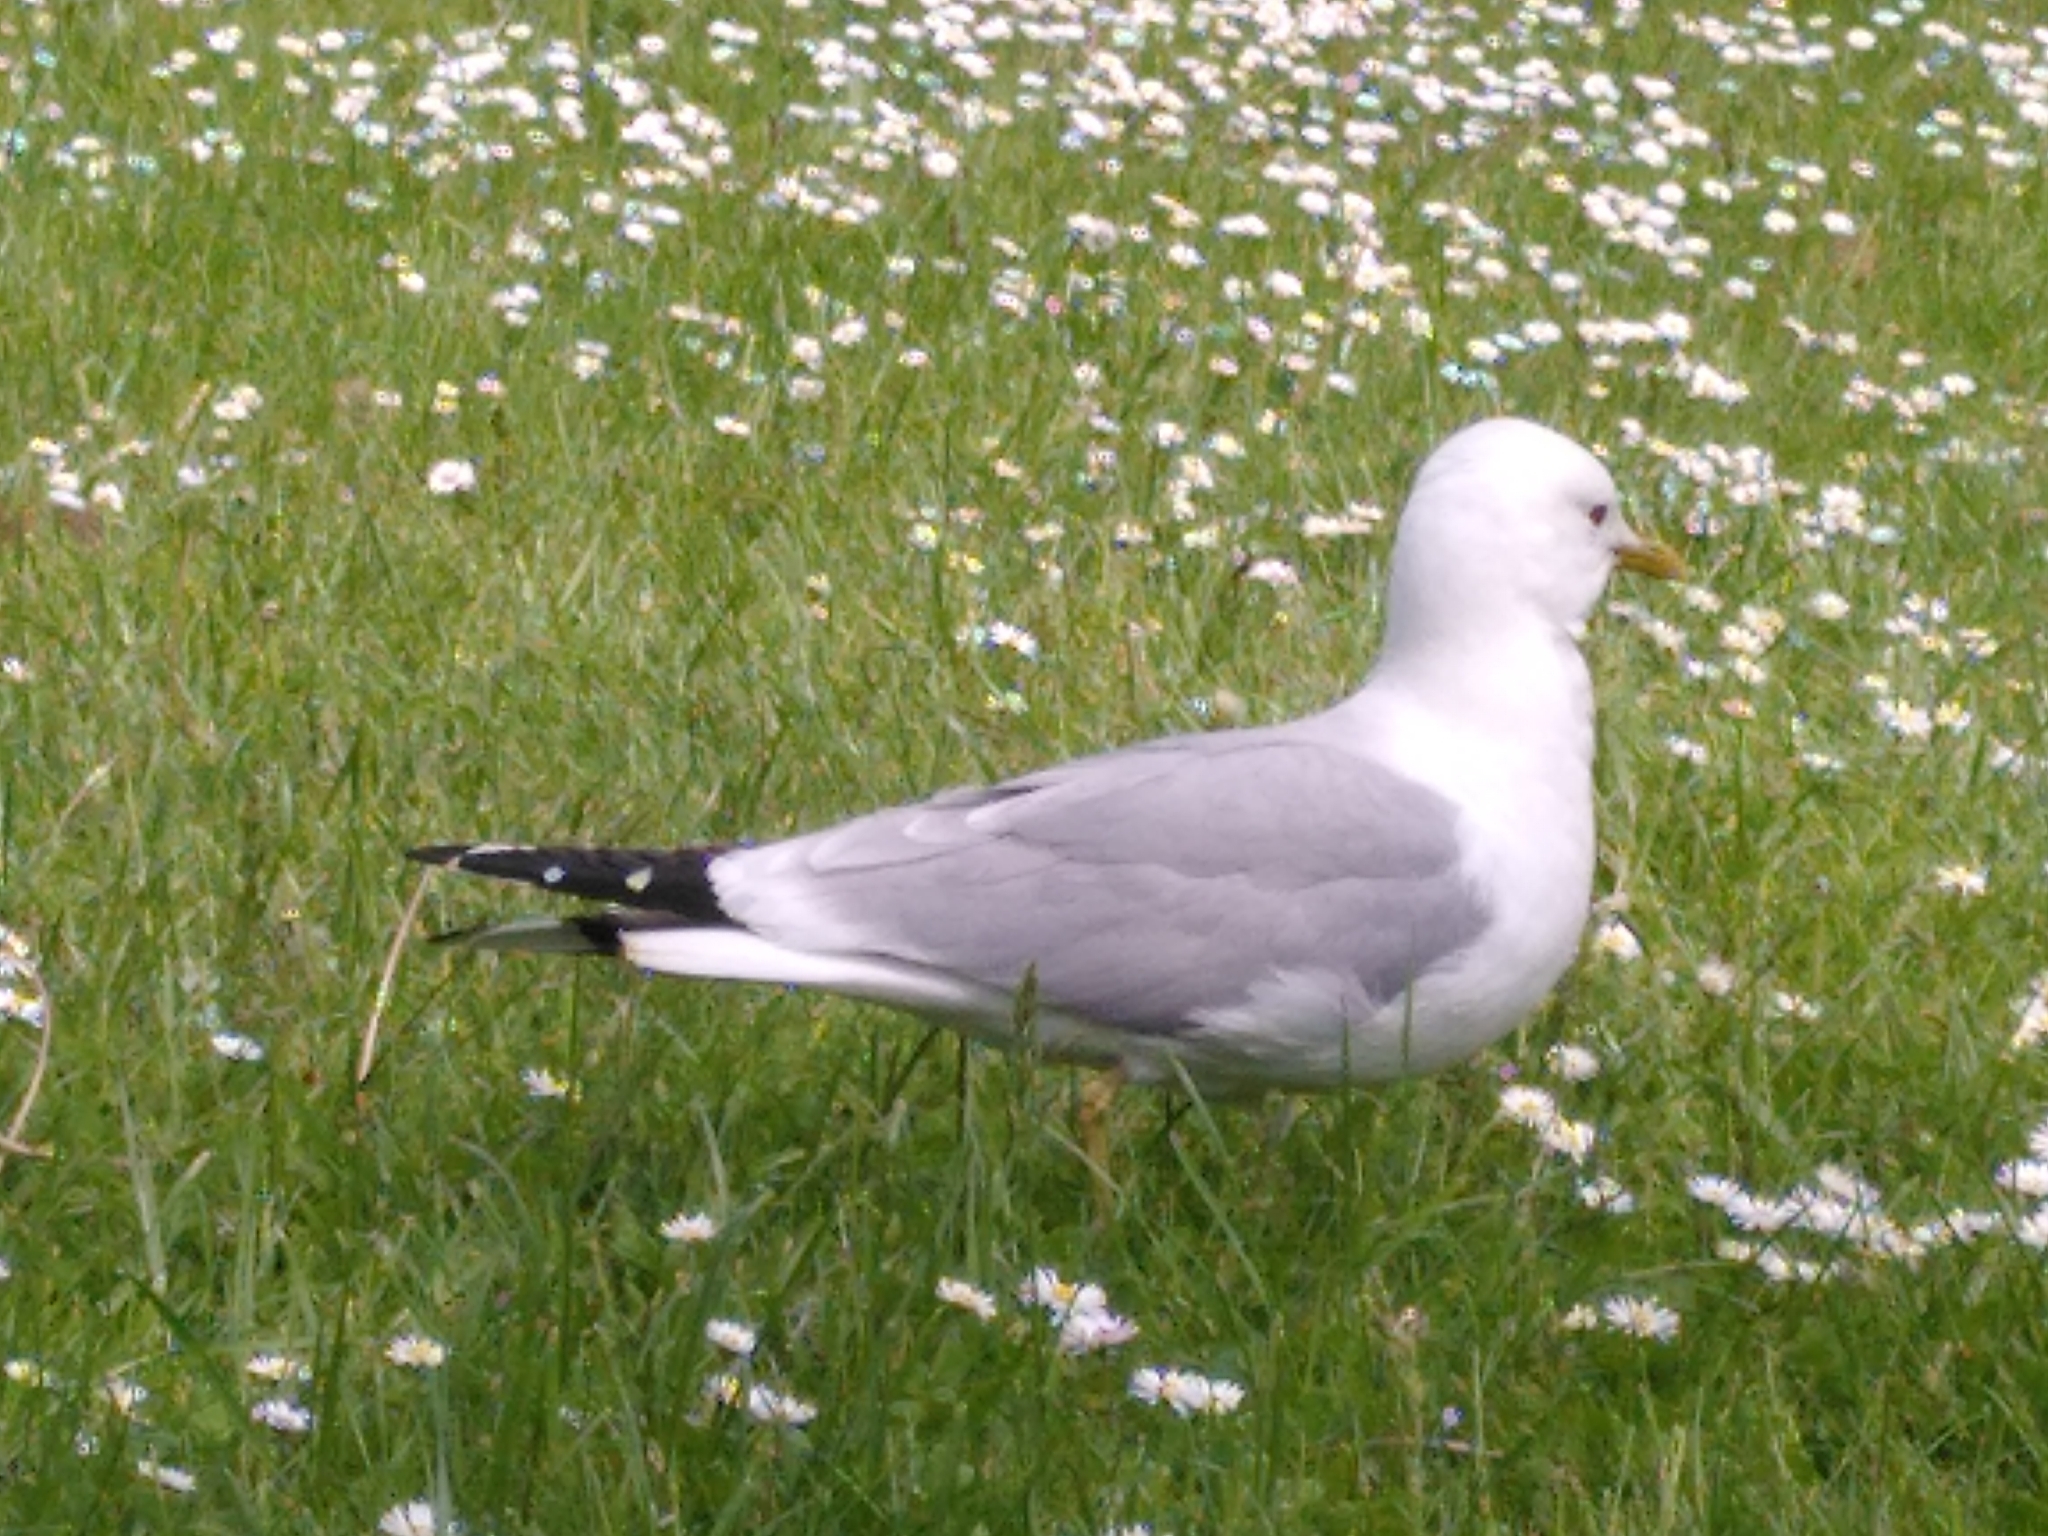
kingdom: Animalia
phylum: Chordata
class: Aves
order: Charadriiformes
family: Laridae
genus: Larus
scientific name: Larus canus
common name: Mew gull
